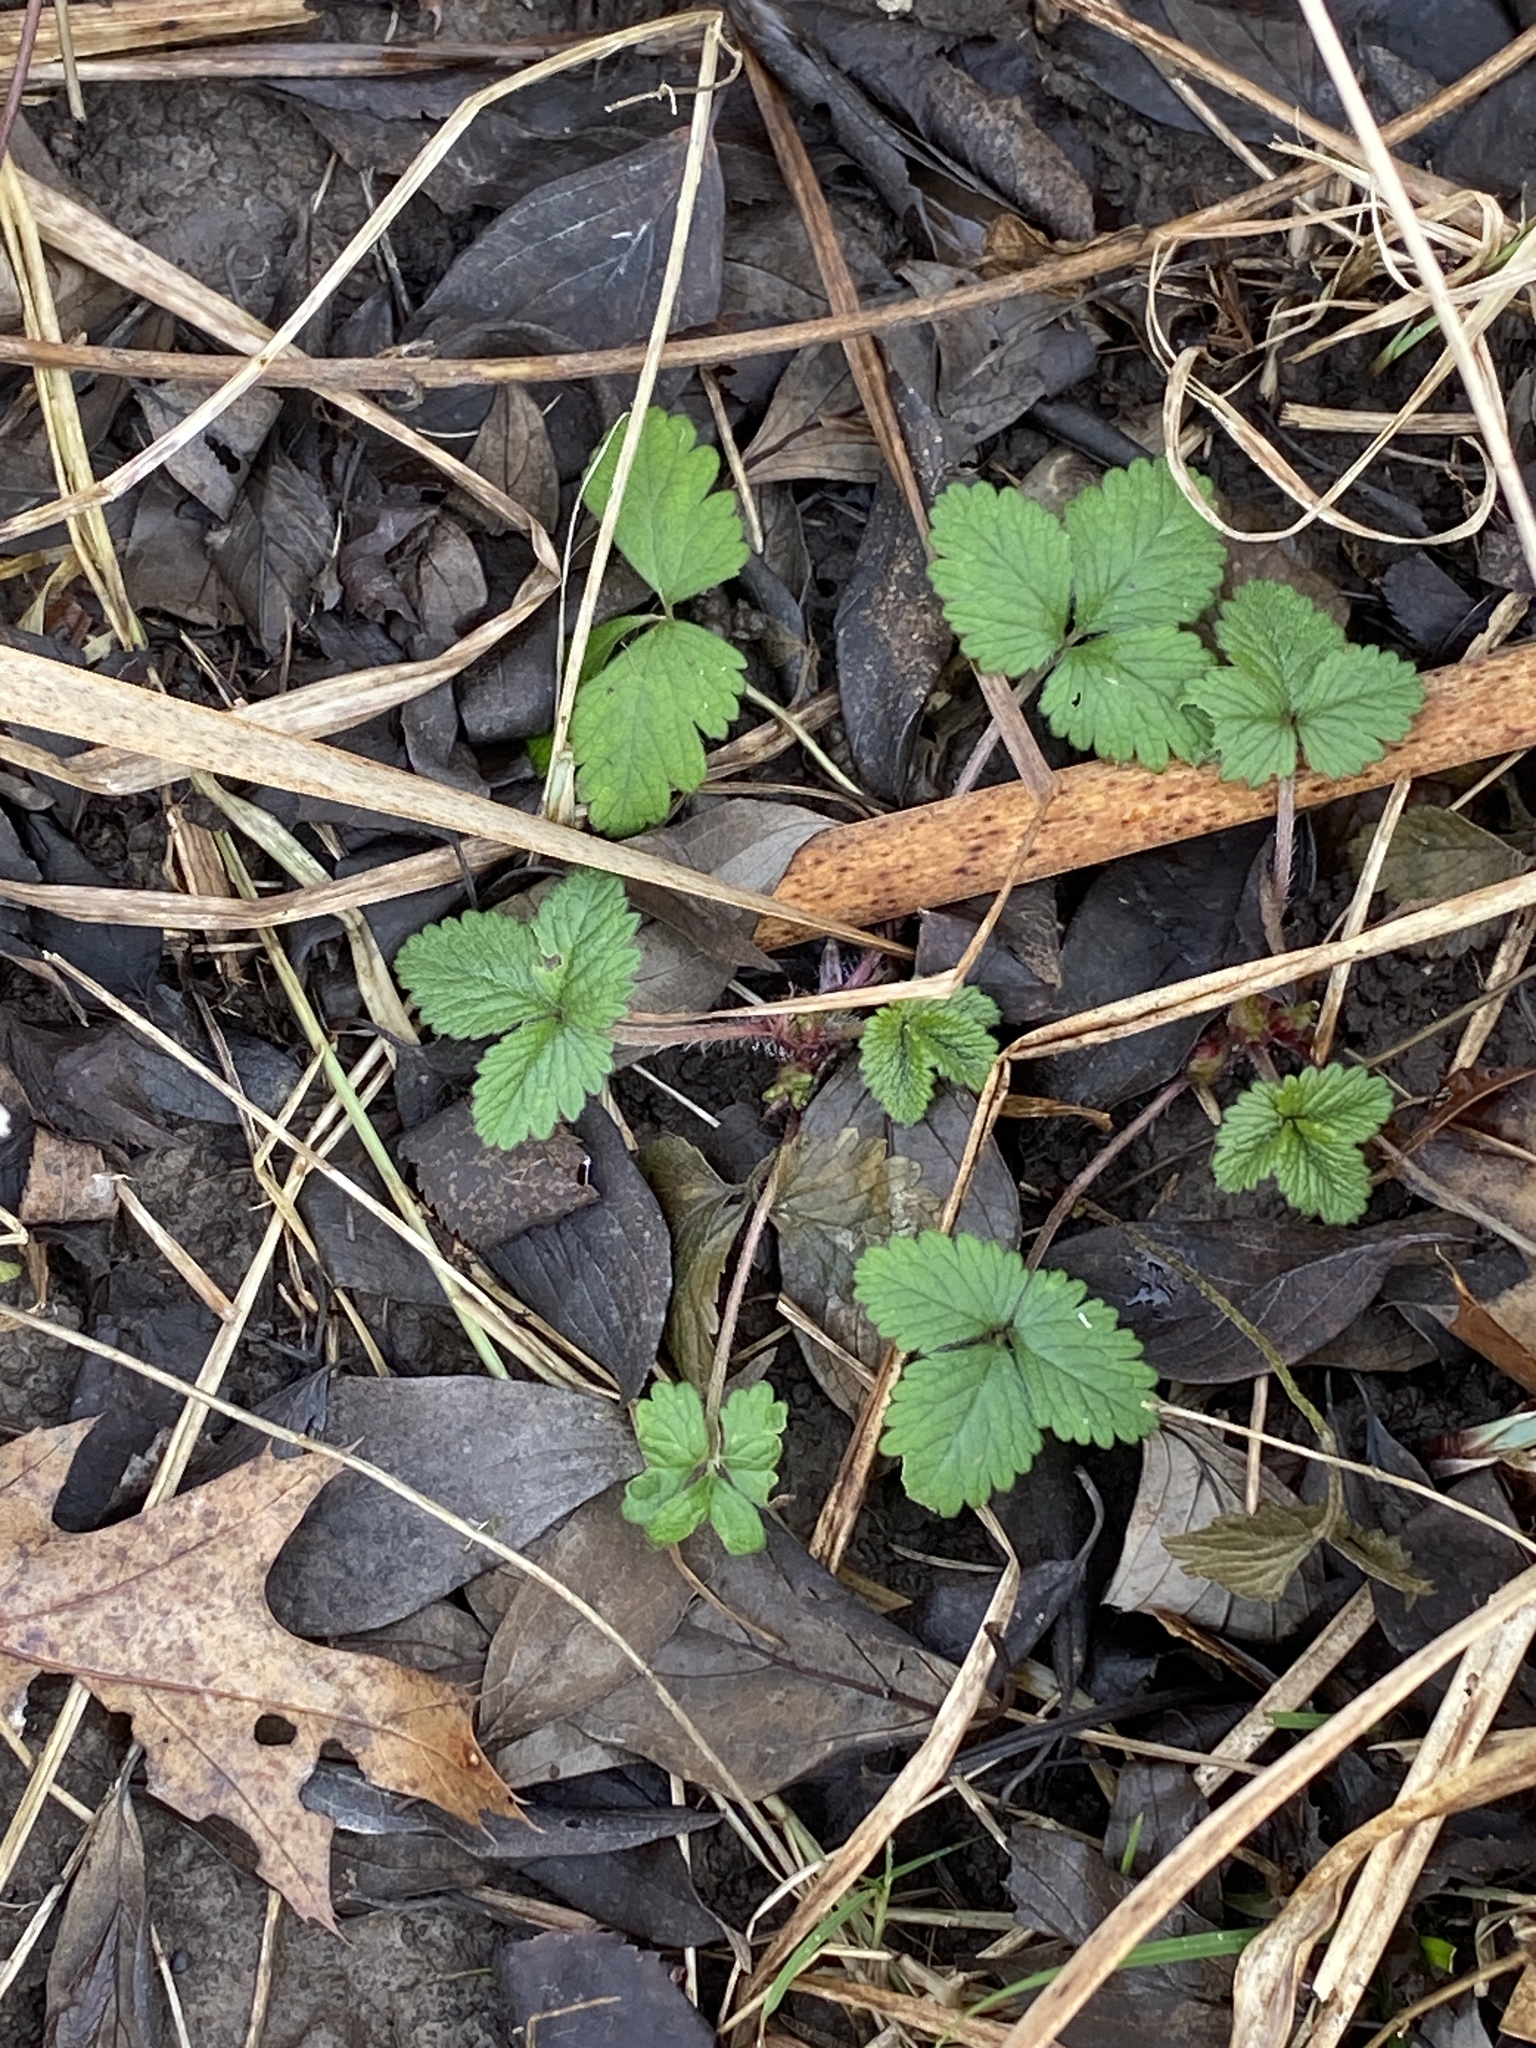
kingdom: Plantae
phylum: Tracheophyta
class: Magnoliopsida
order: Rosales
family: Rosaceae
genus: Potentilla
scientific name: Potentilla indica
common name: Yellow-flowered strawberry
